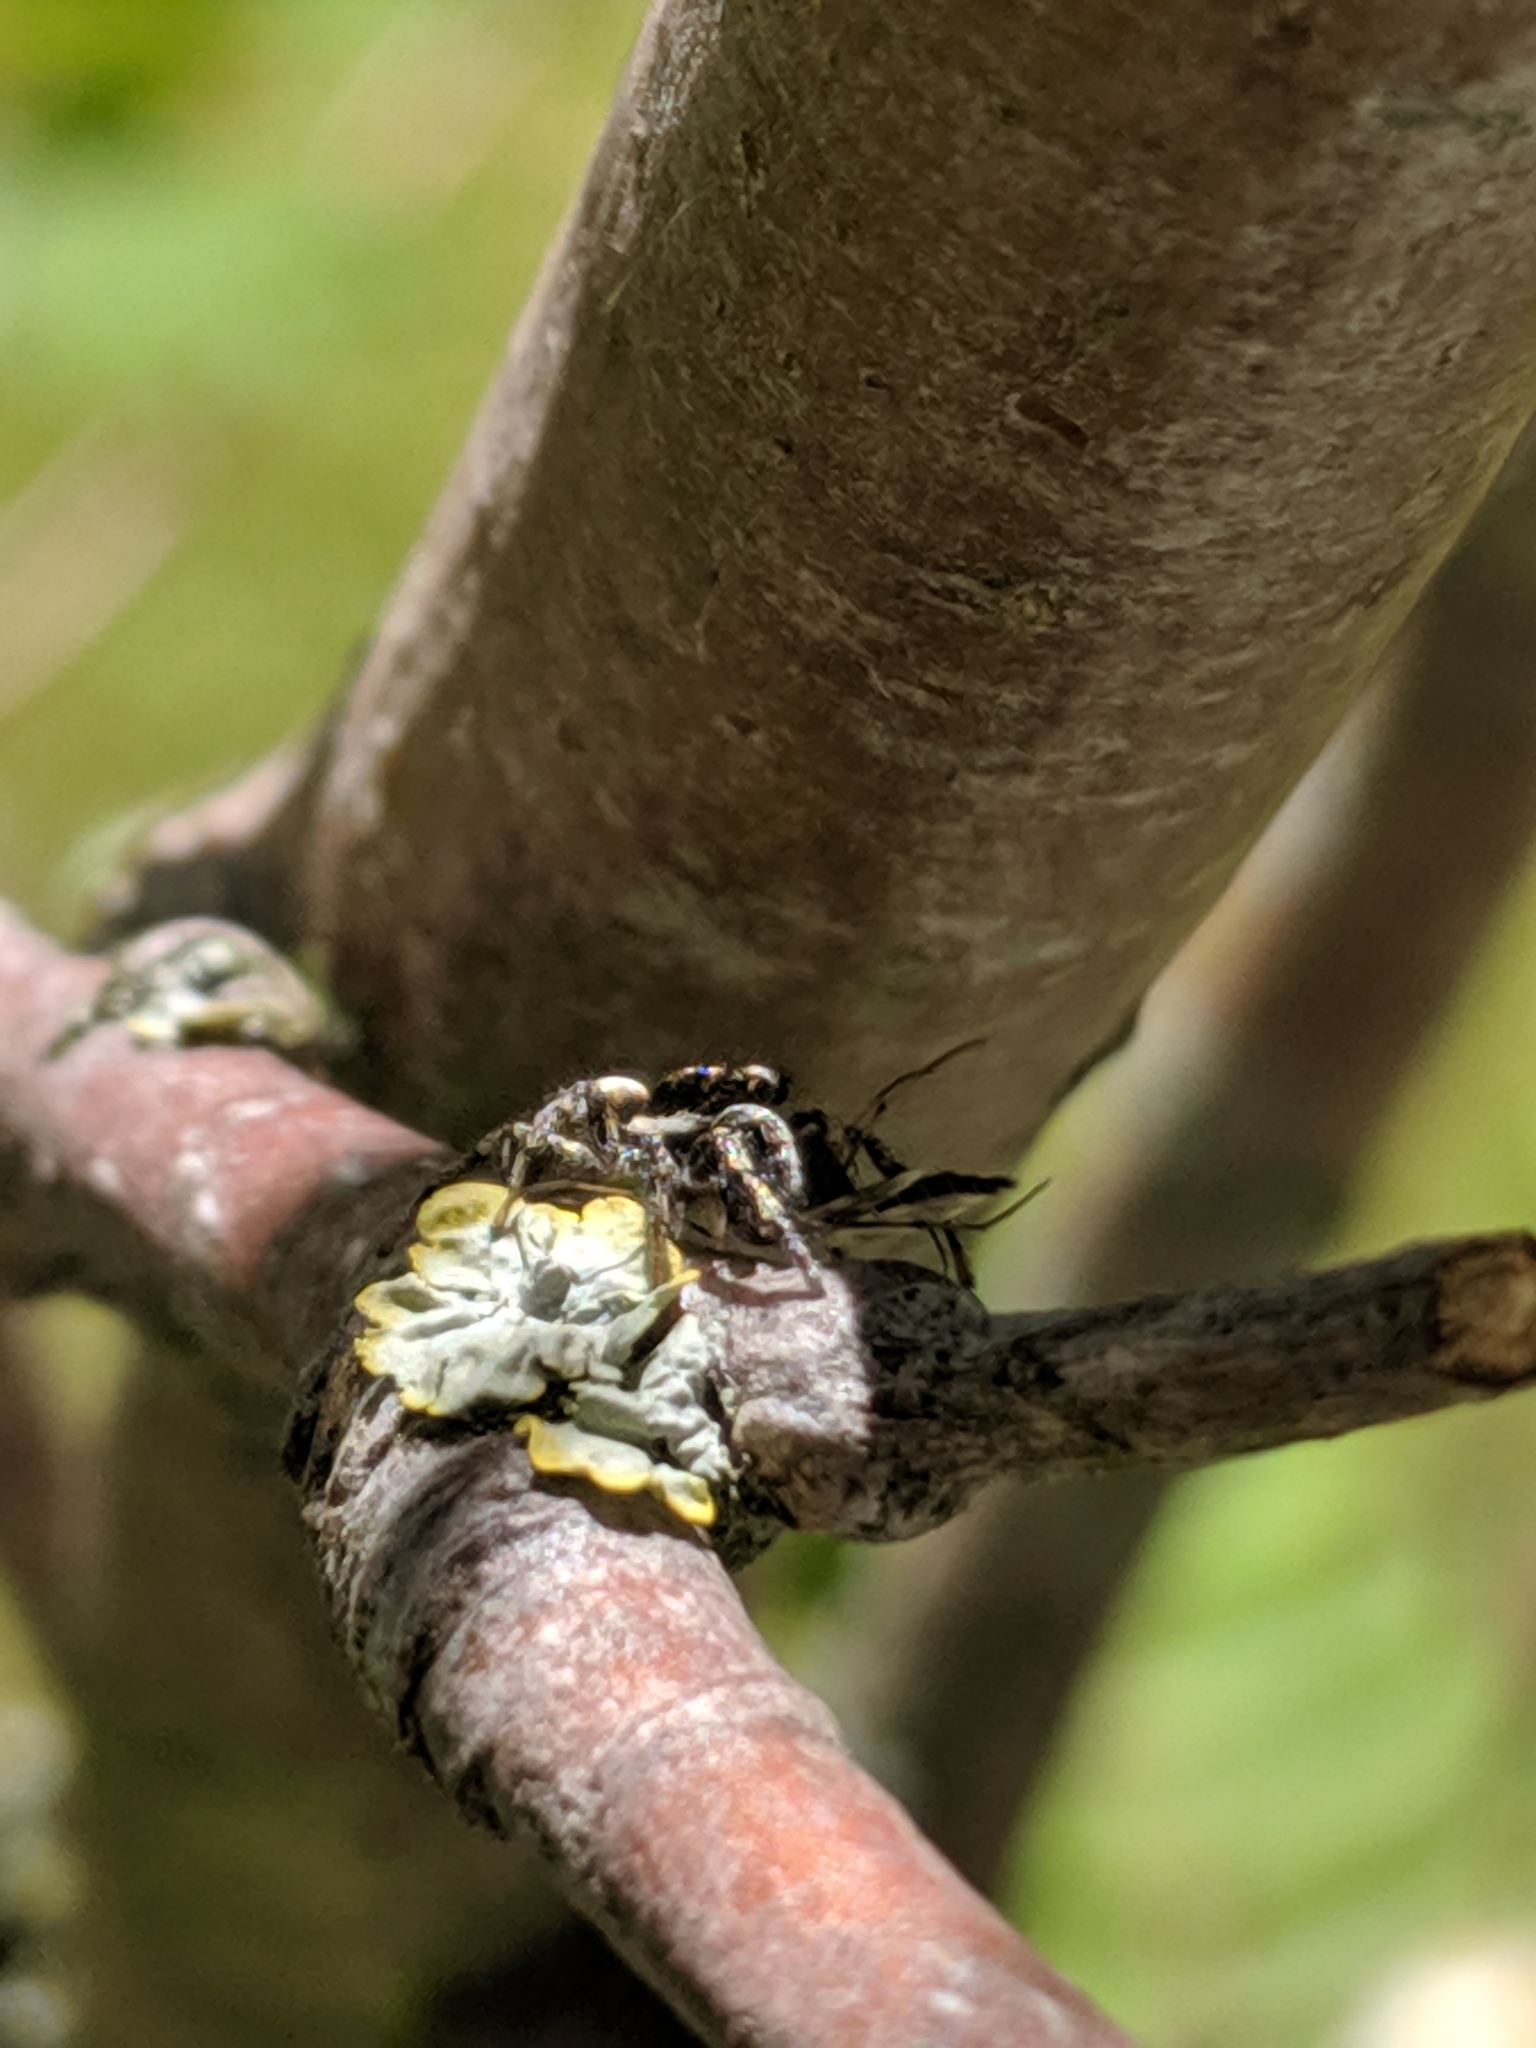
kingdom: Animalia
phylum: Arthropoda
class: Arachnida
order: Araneae
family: Salticidae
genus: Salticus
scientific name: Salticus scenicus
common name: Zebra jumper
